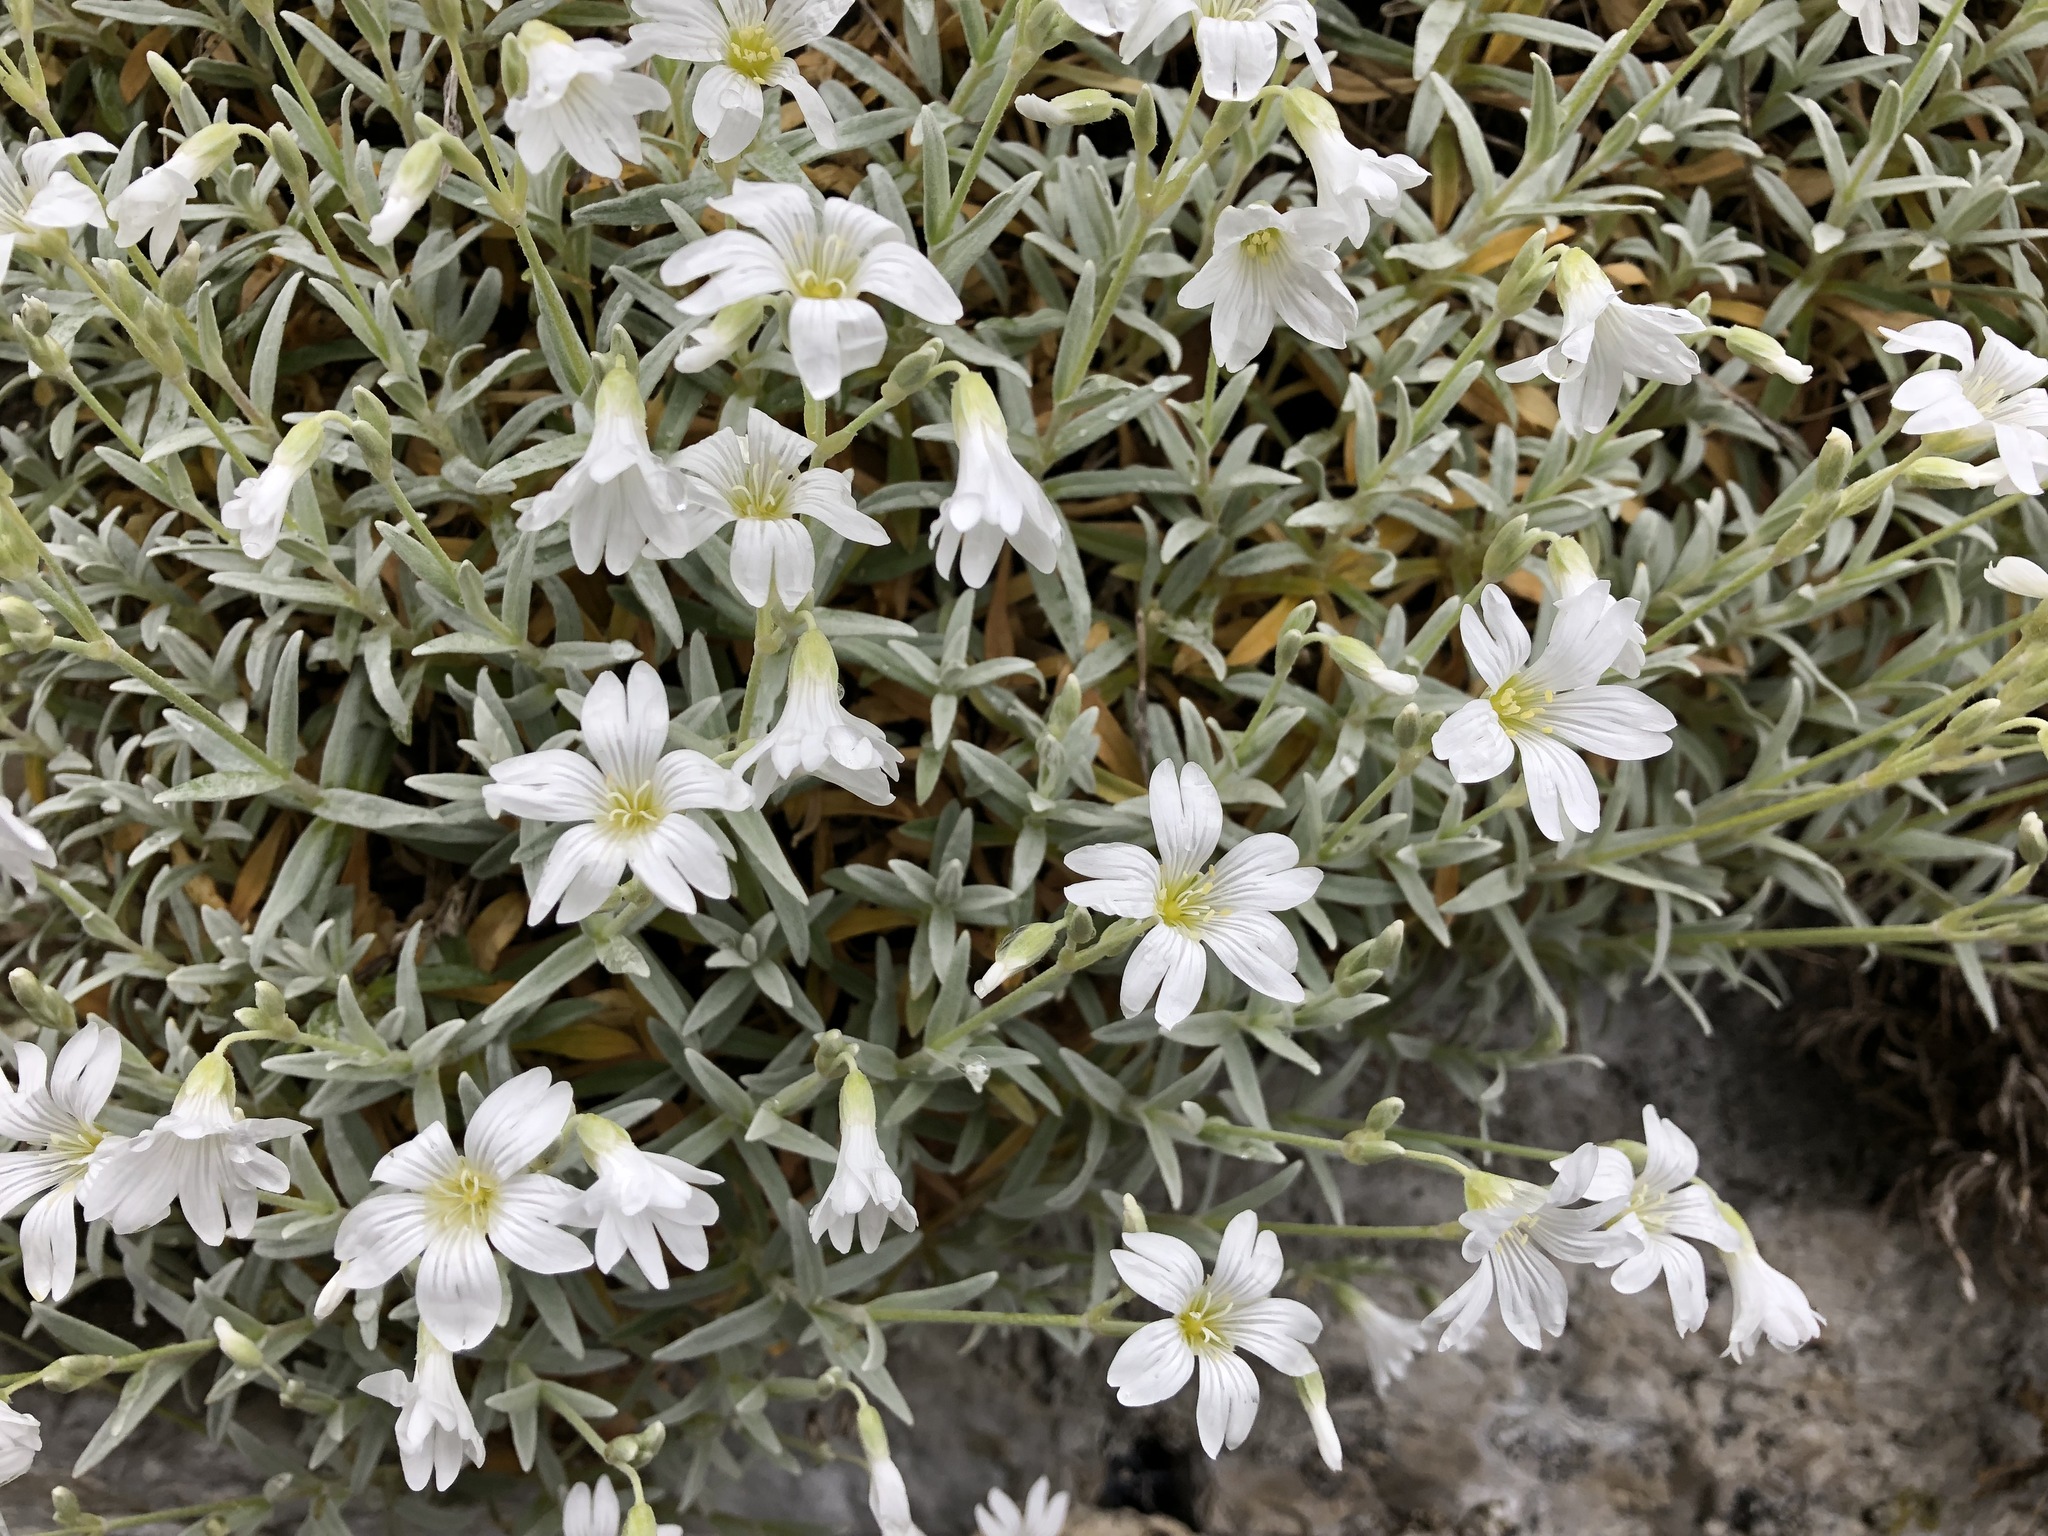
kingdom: Plantae
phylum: Tracheophyta
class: Magnoliopsida
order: Caryophyllales
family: Caryophyllaceae
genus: Cerastium
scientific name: Cerastium tomentosum
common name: Snow-in-summer
